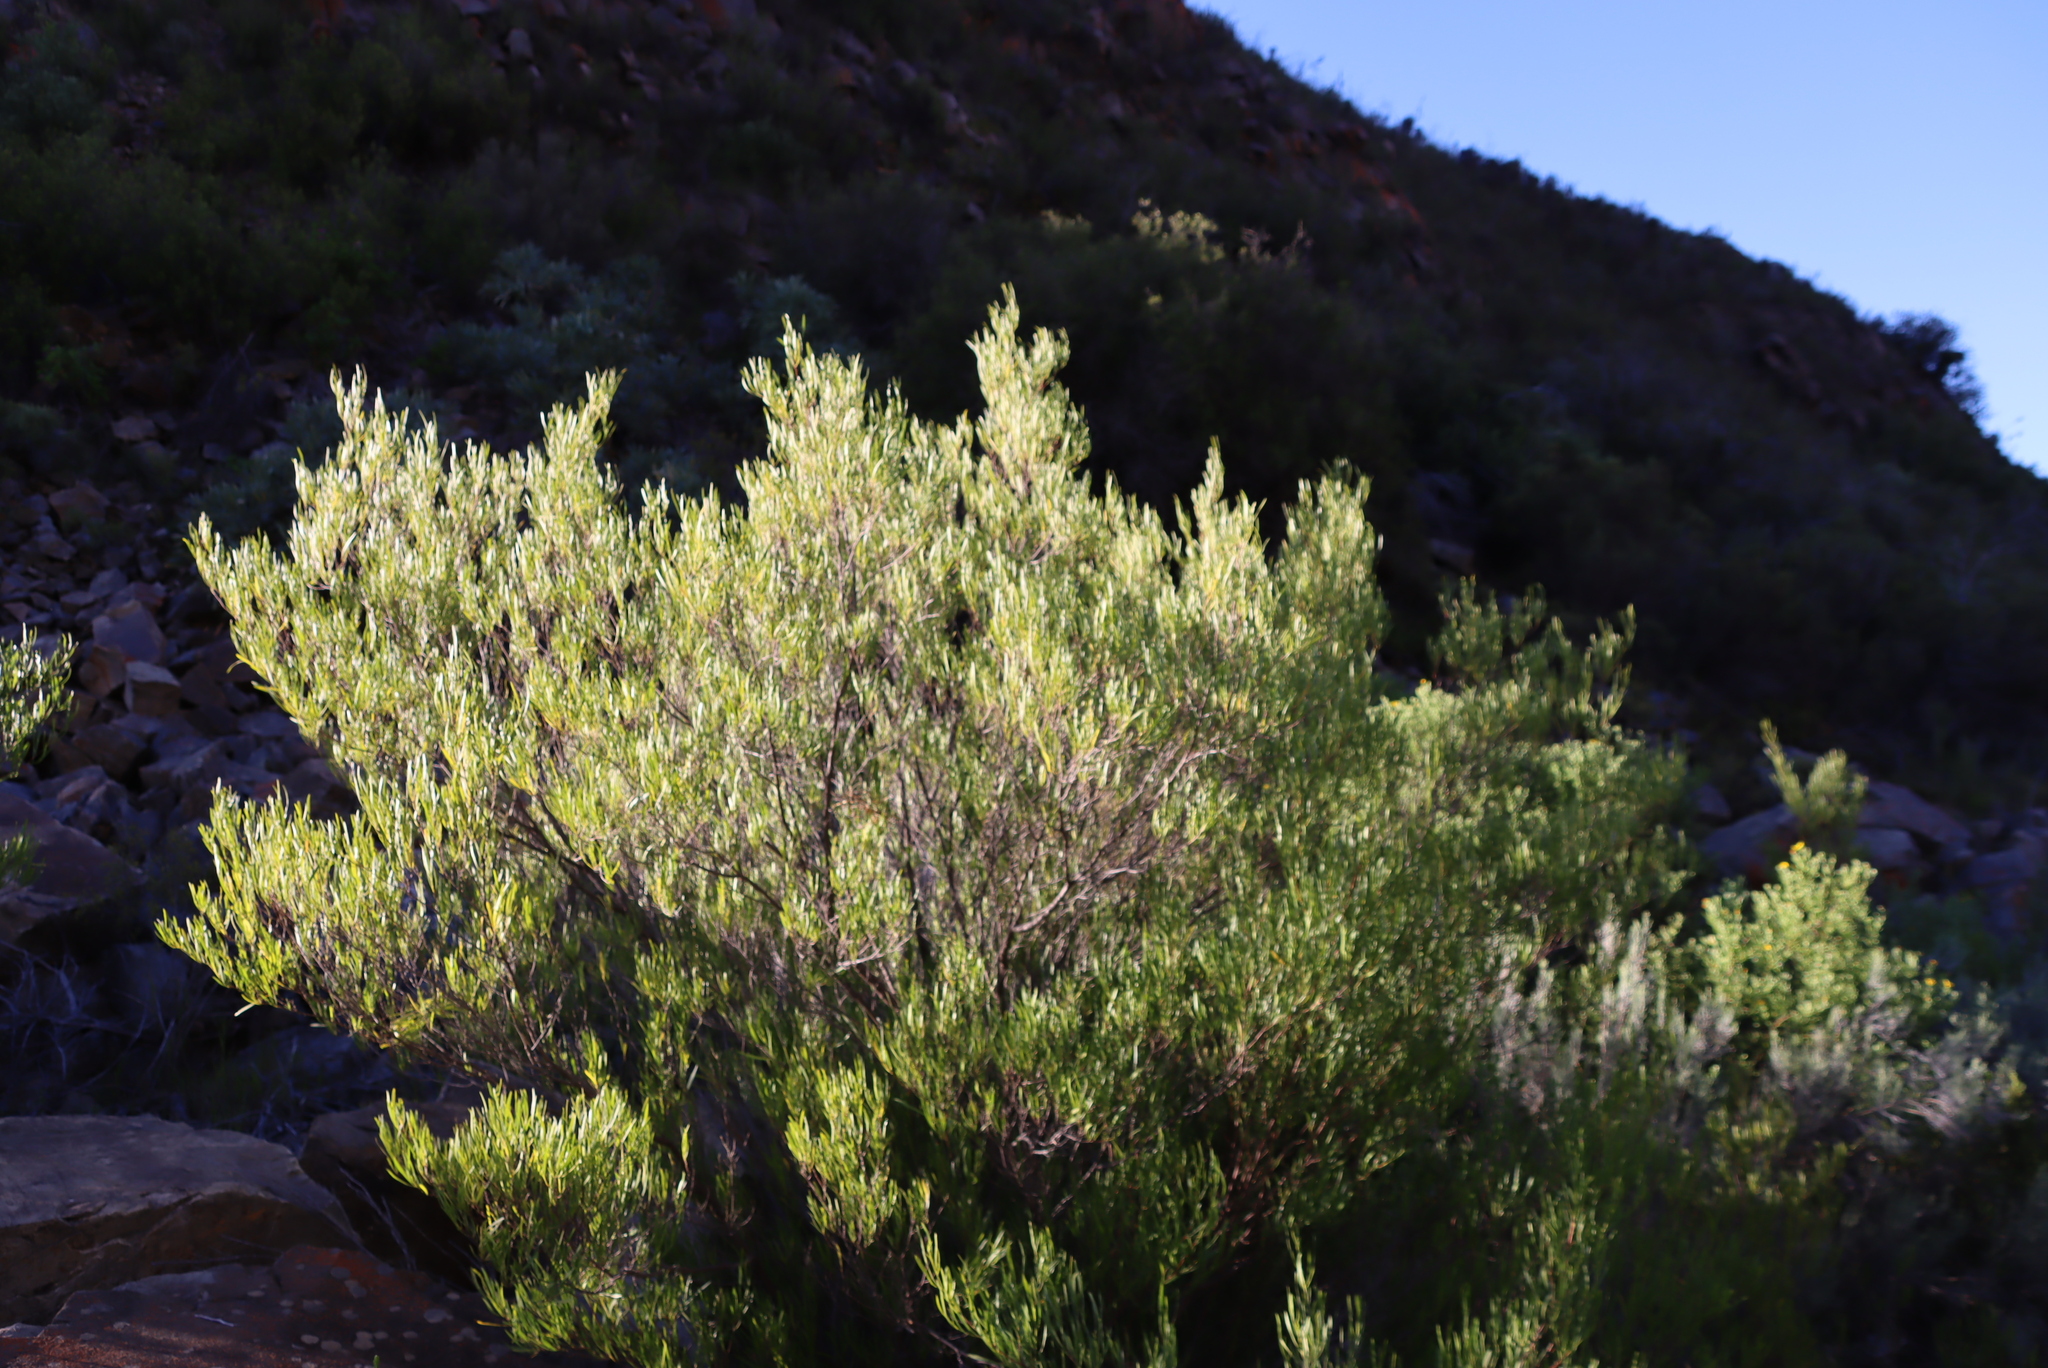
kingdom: Plantae
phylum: Tracheophyta
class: Magnoliopsida
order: Sapindales
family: Sapindaceae
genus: Dodonaea
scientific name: Dodonaea viscosa
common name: Hopbush
